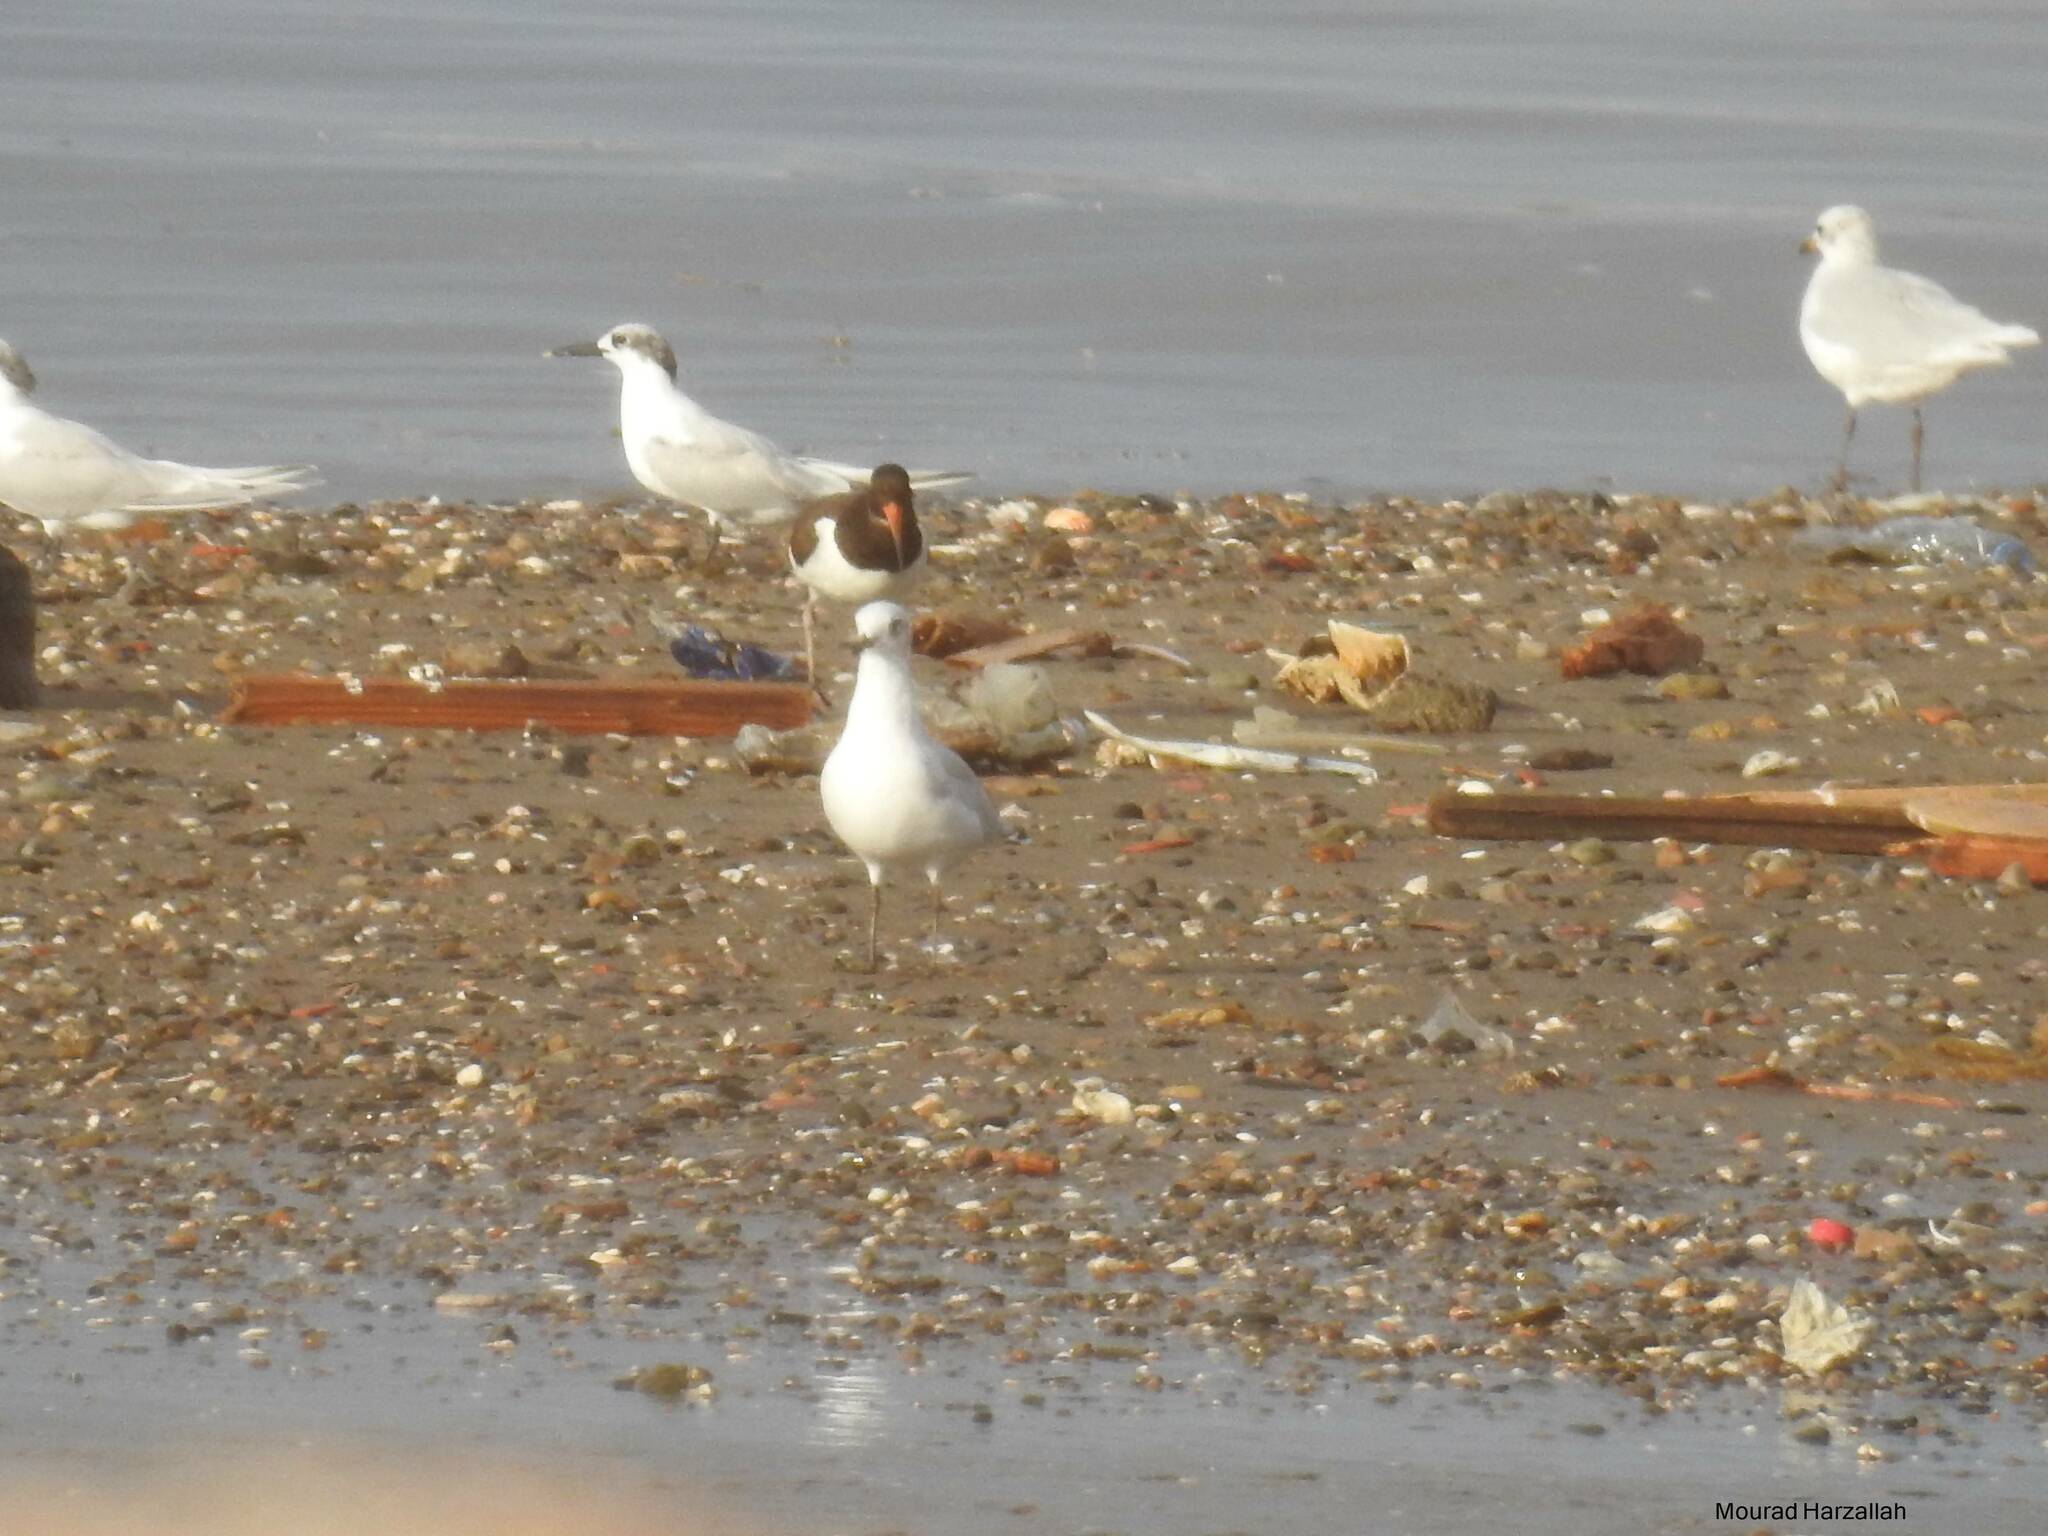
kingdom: Animalia
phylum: Chordata
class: Aves
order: Charadriiformes
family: Laridae
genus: Ichthyaetus
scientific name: Ichthyaetus melanocephalus
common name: Mediterranean gull
